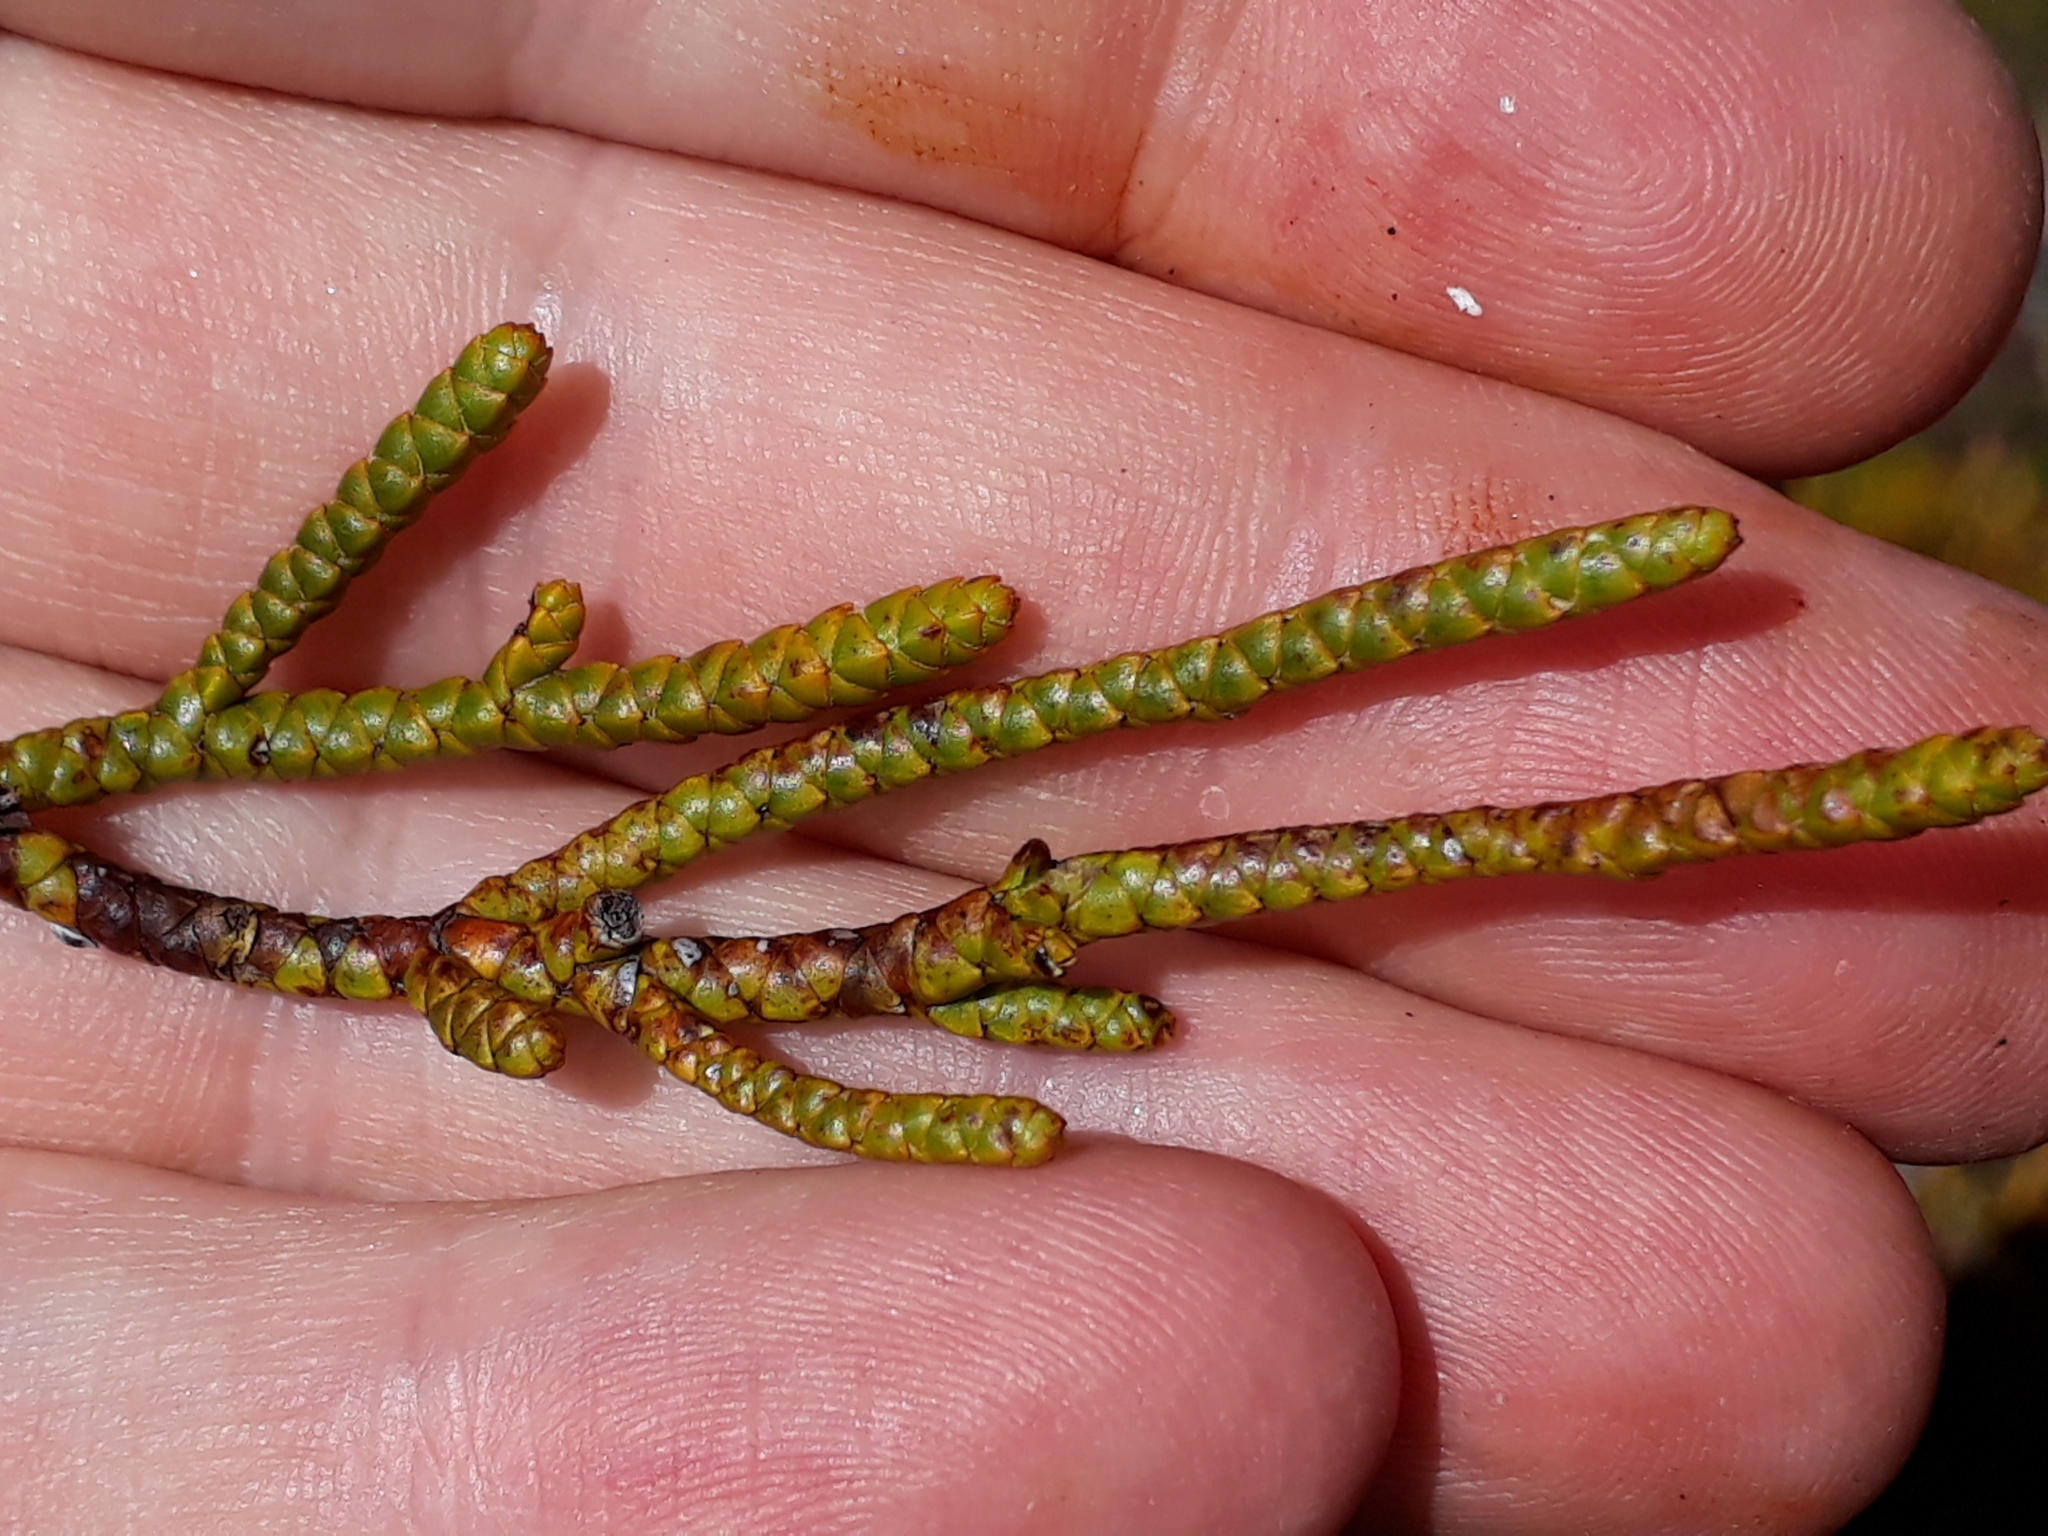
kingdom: Plantae
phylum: Tracheophyta
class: Magnoliopsida
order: Lamiales
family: Plantaginaceae
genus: Veronica
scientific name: Veronica hectorii
